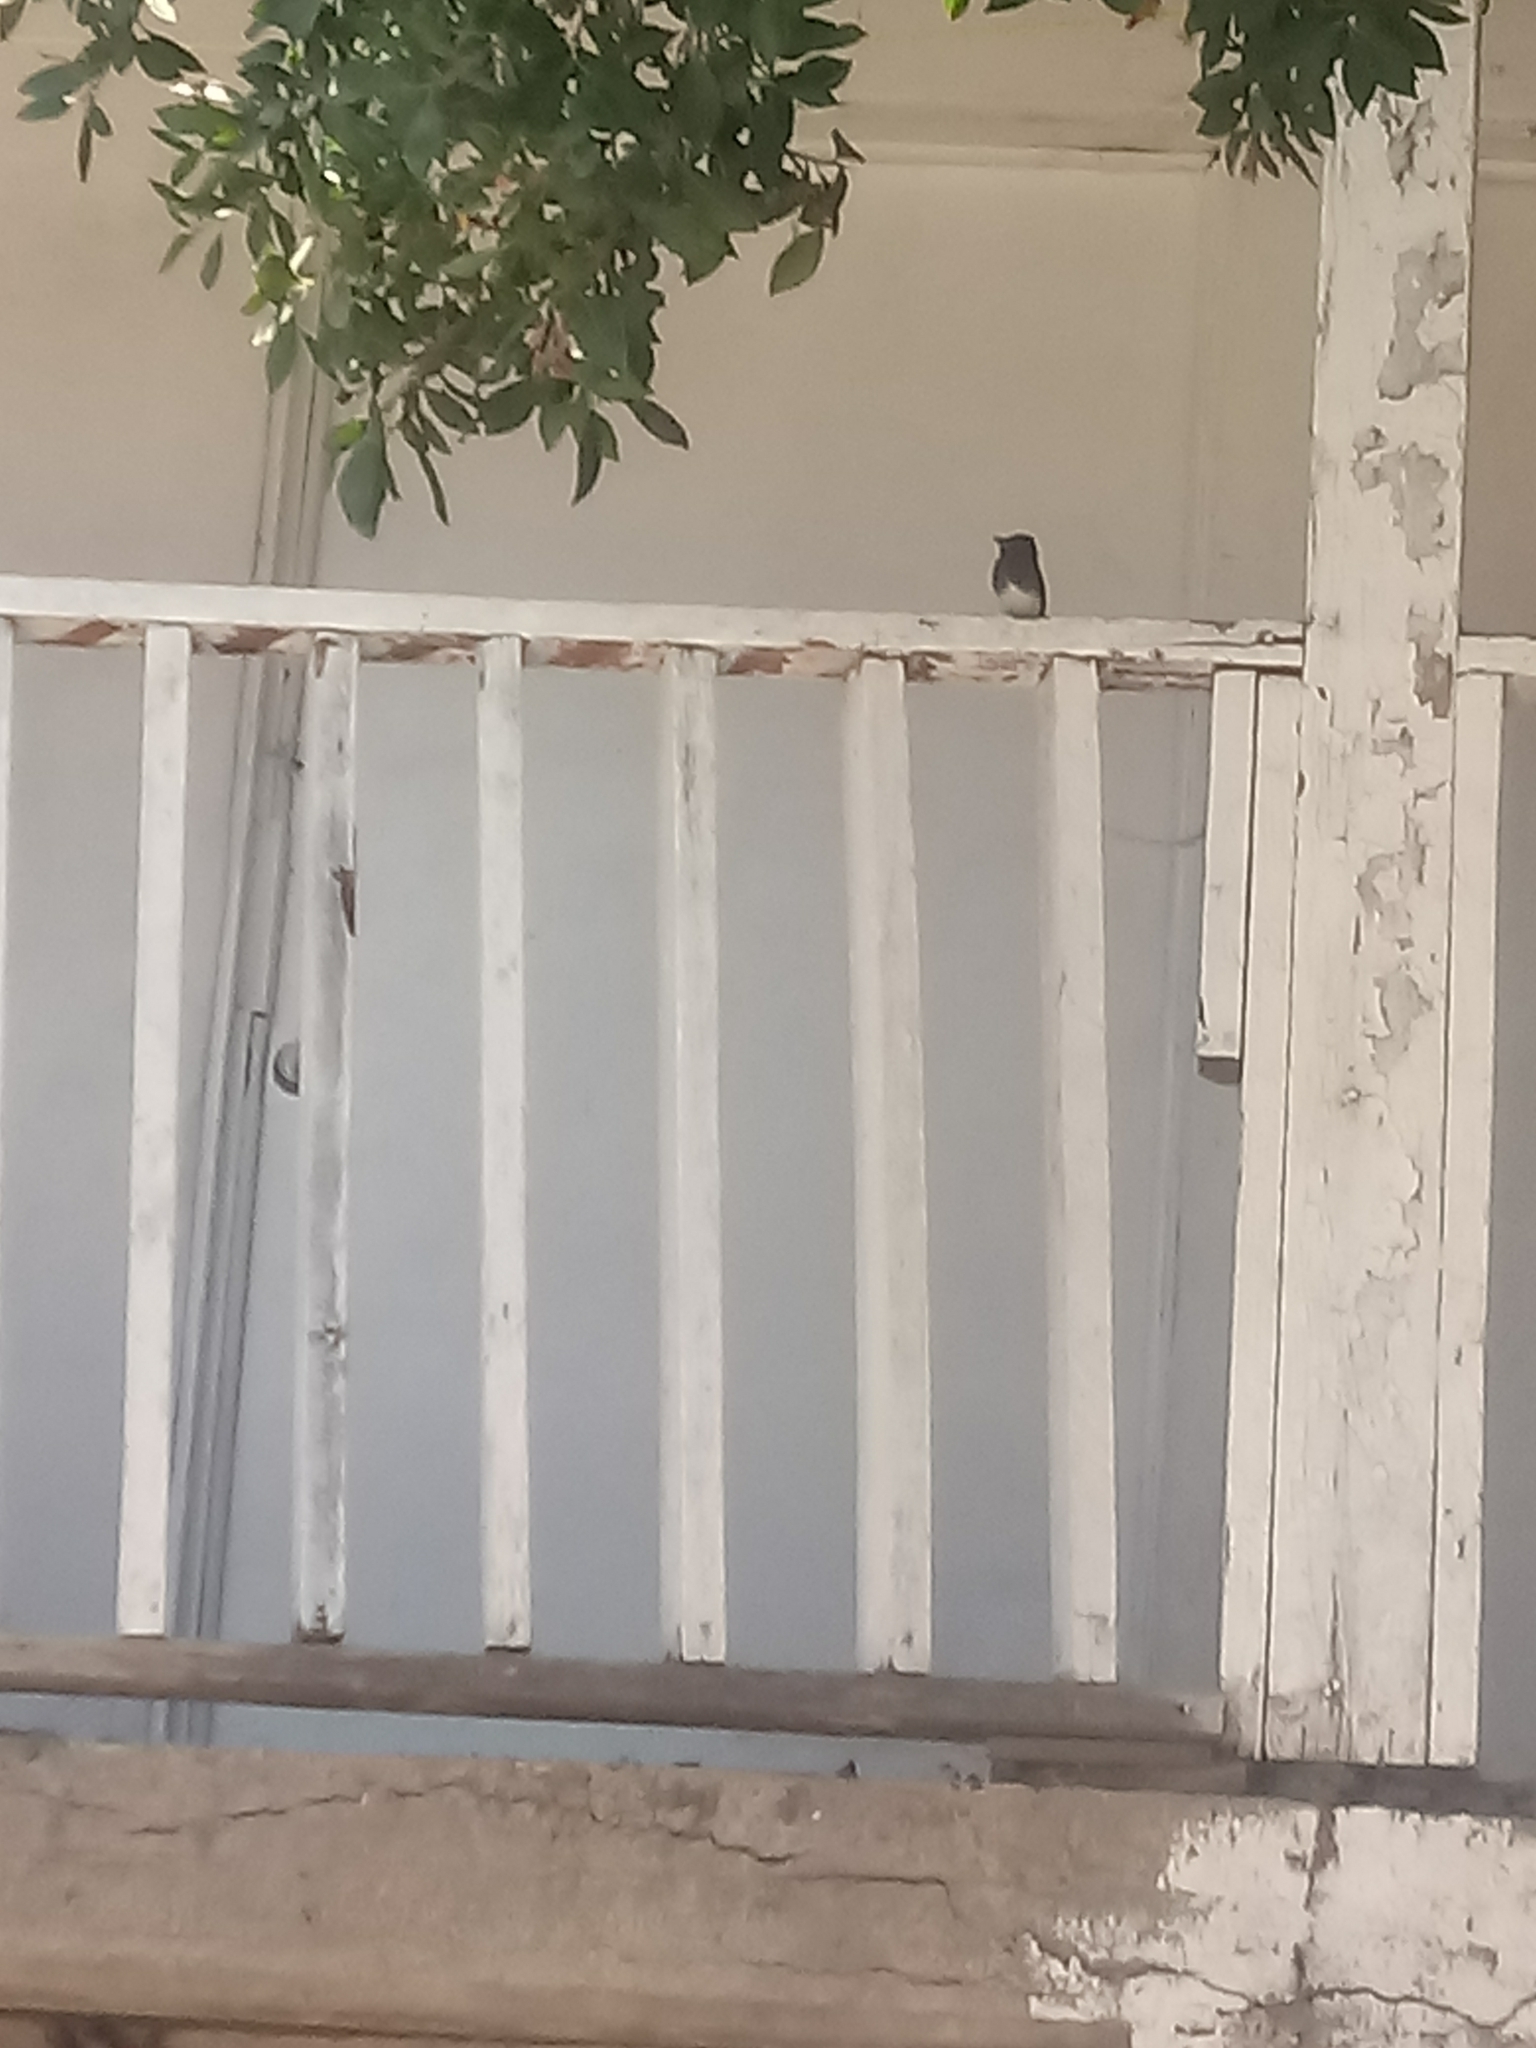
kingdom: Animalia
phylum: Chordata
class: Aves
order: Passeriformes
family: Tyrannidae
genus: Sayornis
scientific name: Sayornis nigricans
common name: Black phoebe
